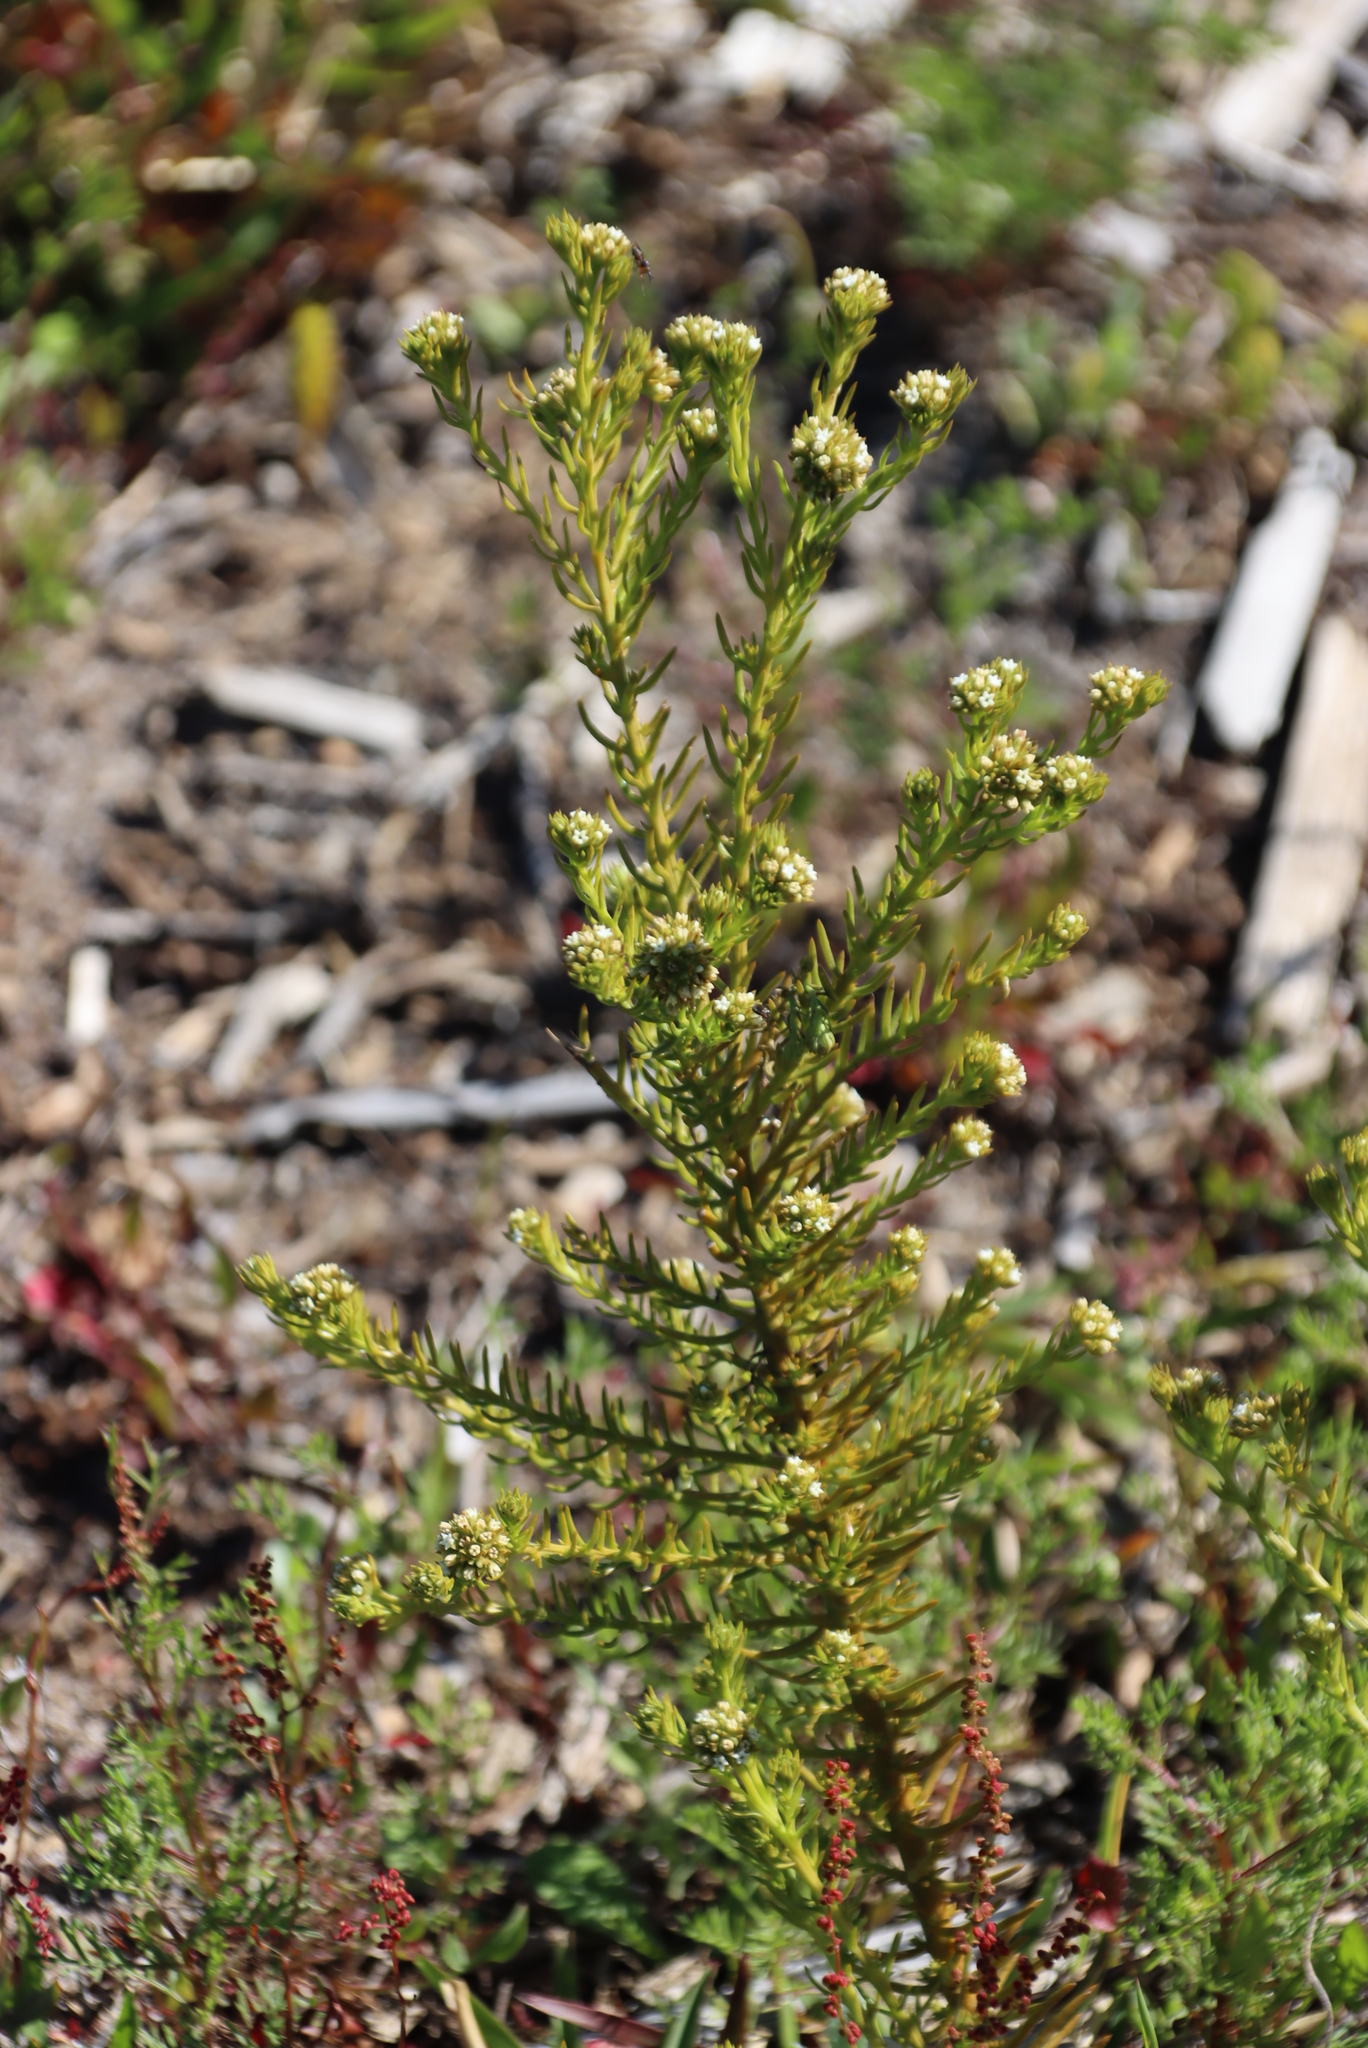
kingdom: Plantae
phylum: Tracheophyta
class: Magnoliopsida
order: Santalales
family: Thesiaceae
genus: Thesium
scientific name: Thesium scabrum
